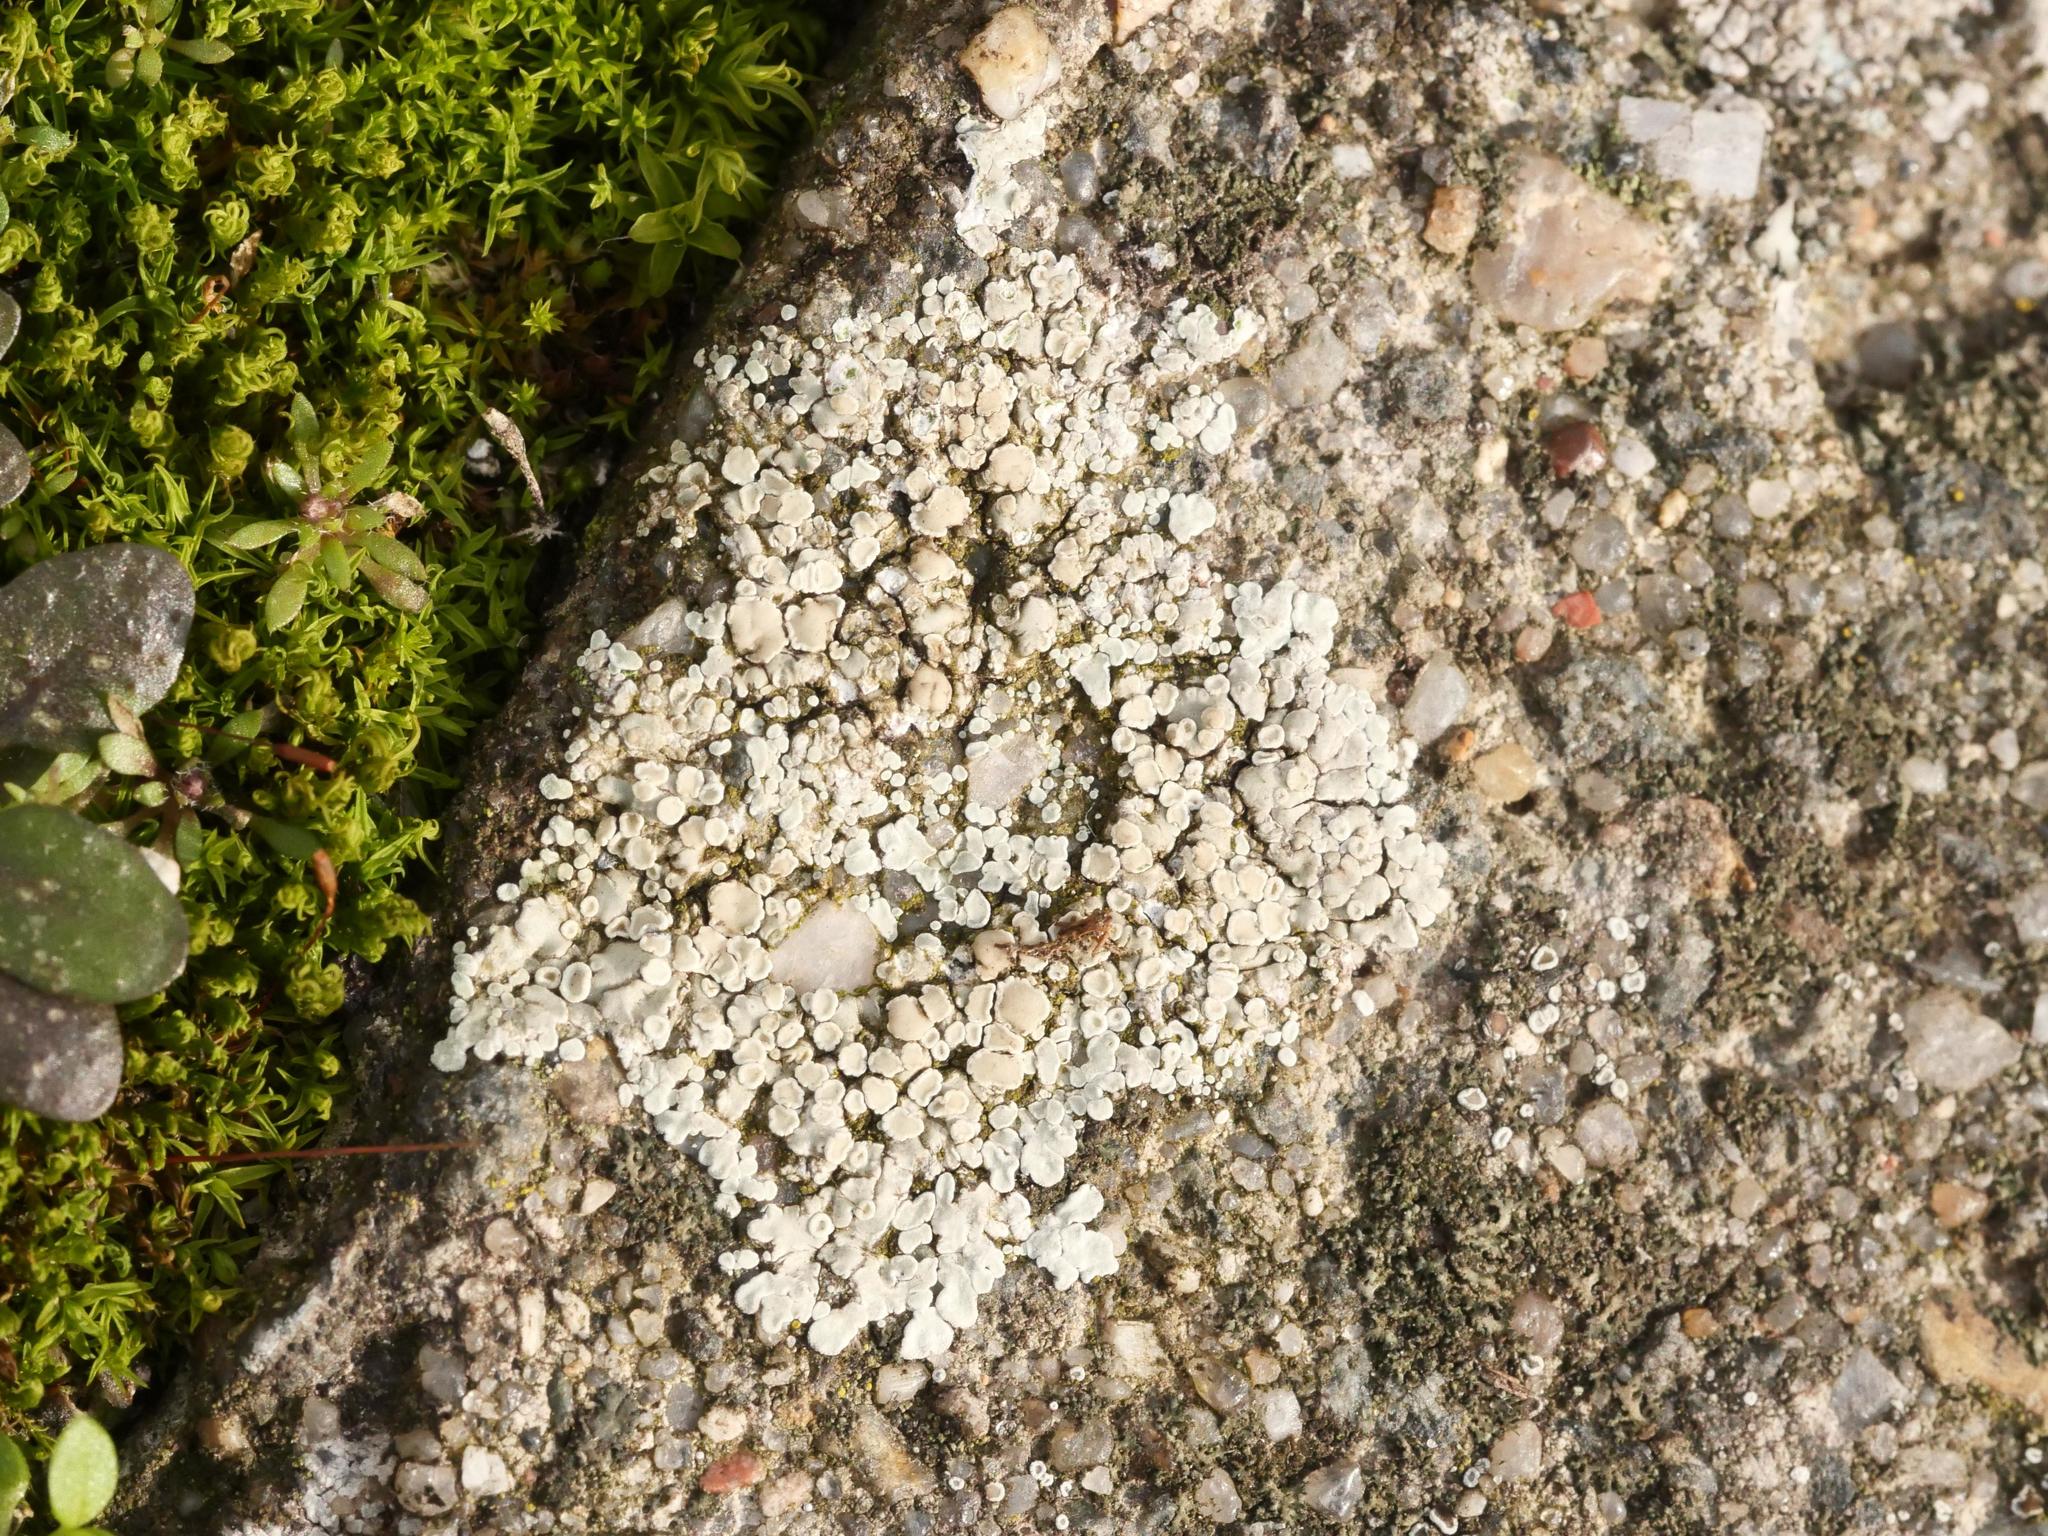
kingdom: Fungi
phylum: Ascomycota
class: Lecanoromycetes
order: Lecanorales
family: Lecanoraceae
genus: Protoparmeliopsis
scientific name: Protoparmeliopsis muralis
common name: Stonewall rim lichen
